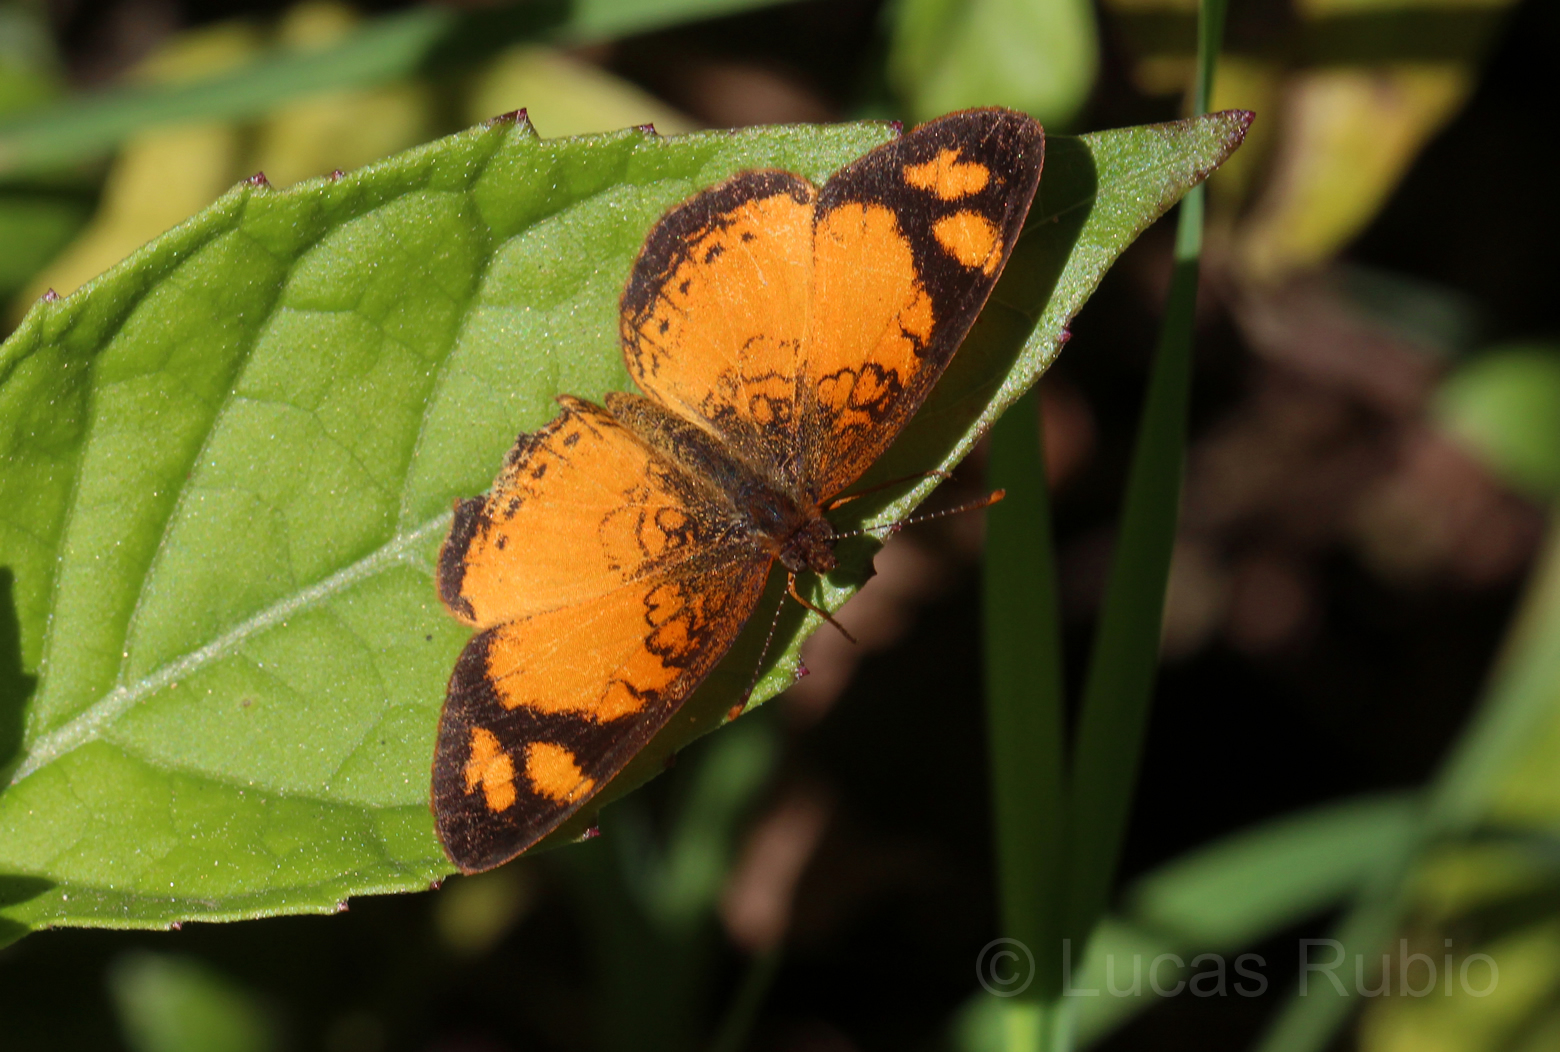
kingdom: Animalia
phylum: Arthropoda
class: Insecta
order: Lepidoptera
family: Nymphalidae
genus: Tegosa
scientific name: Tegosa claudina
